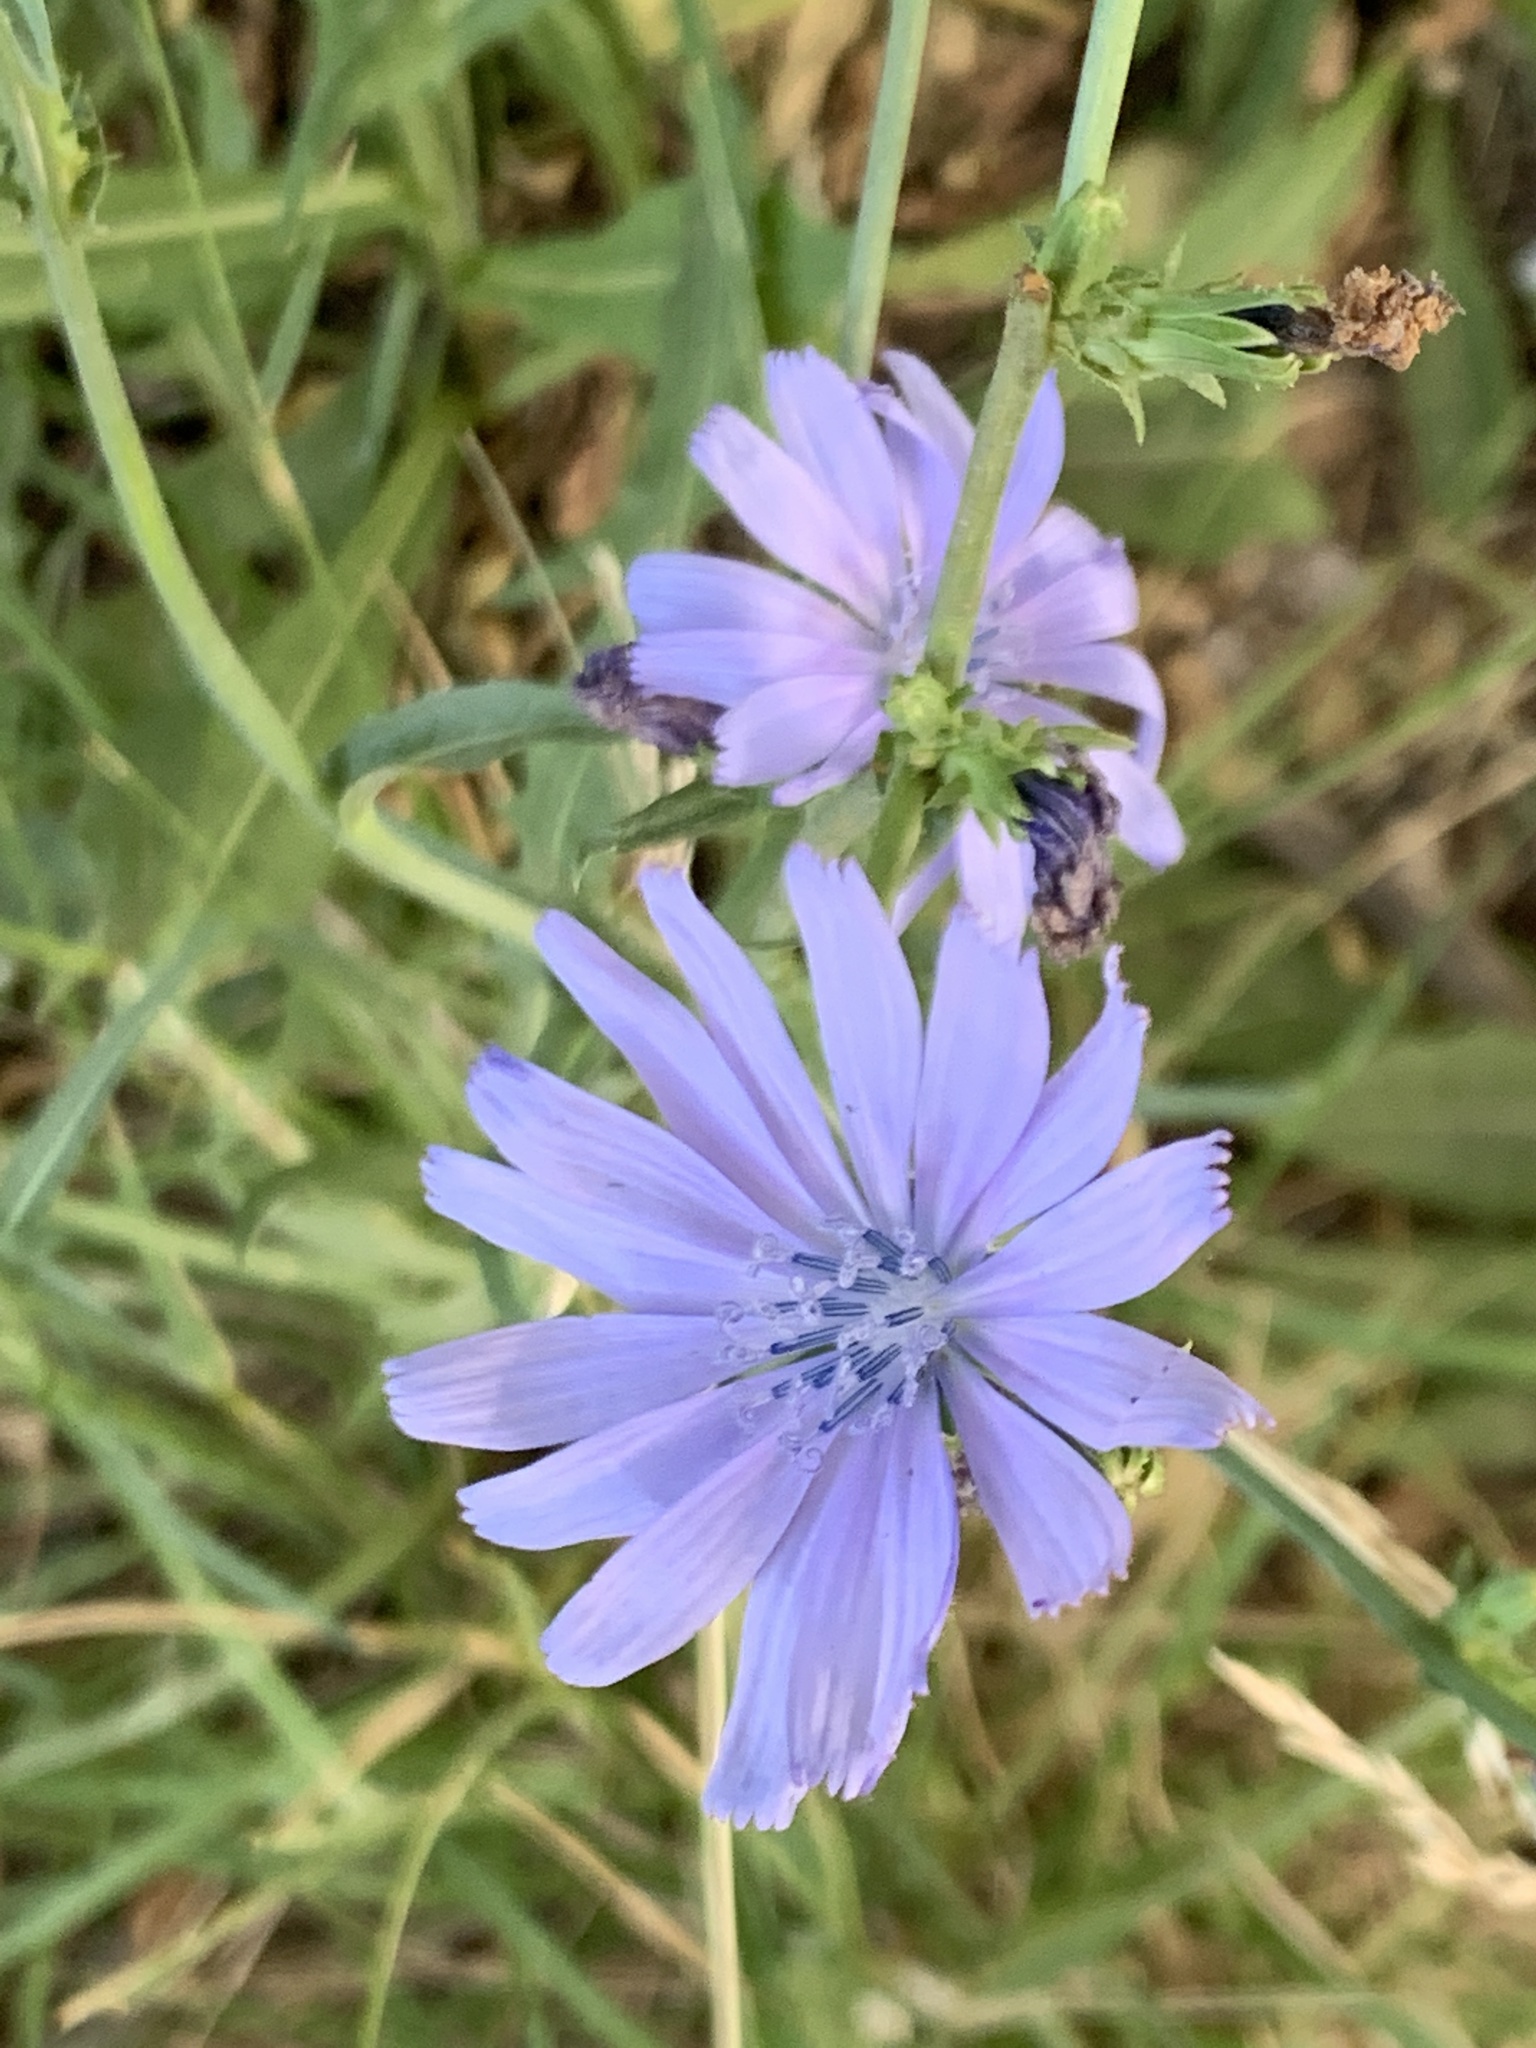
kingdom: Plantae
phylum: Tracheophyta
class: Magnoliopsida
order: Asterales
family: Asteraceae
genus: Cichorium
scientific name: Cichorium intybus
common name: Chicory
